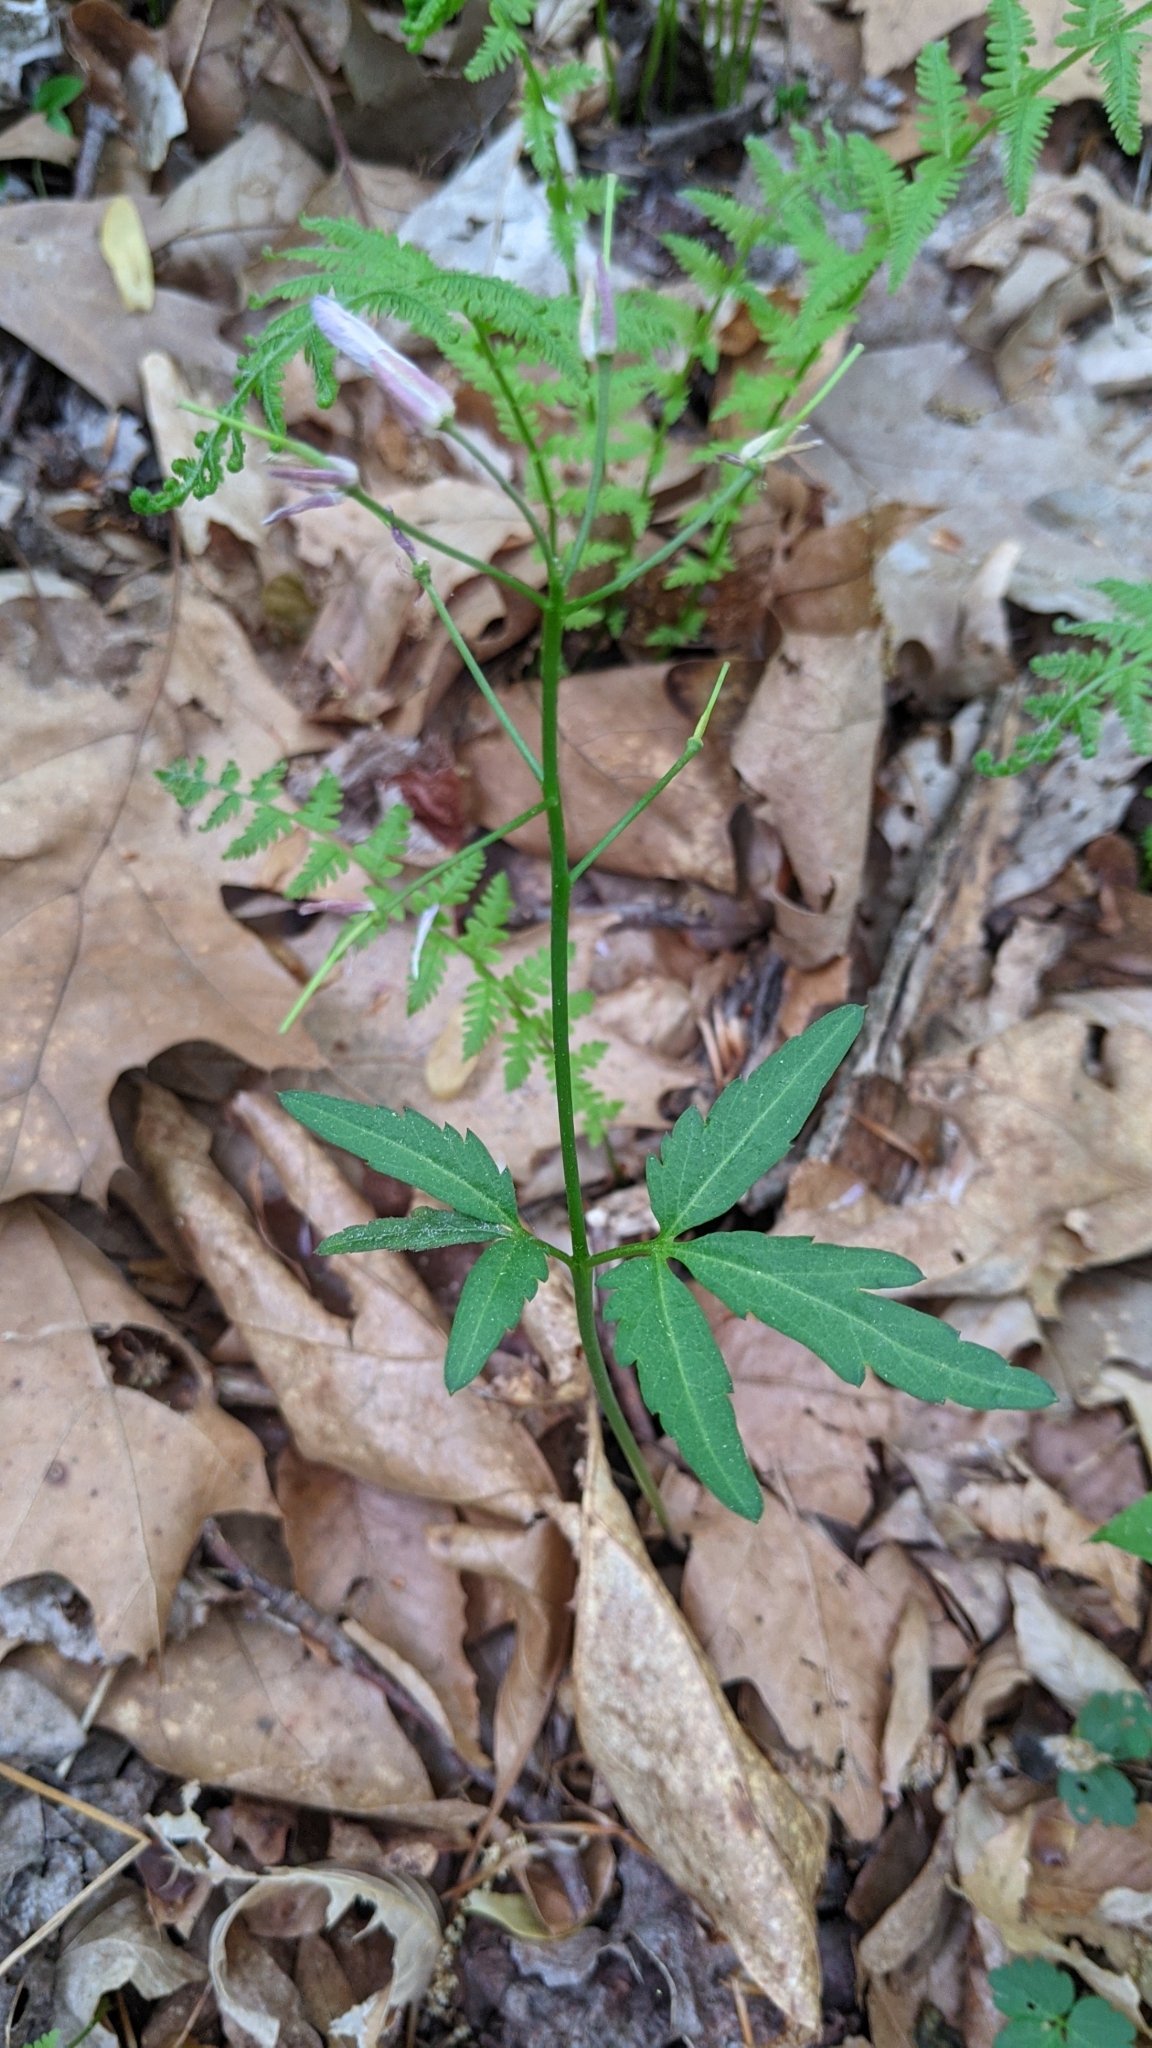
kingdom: Plantae
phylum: Tracheophyta
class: Magnoliopsida
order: Brassicales
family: Brassicaceae
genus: Cardamine
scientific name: Cardamine angustata
